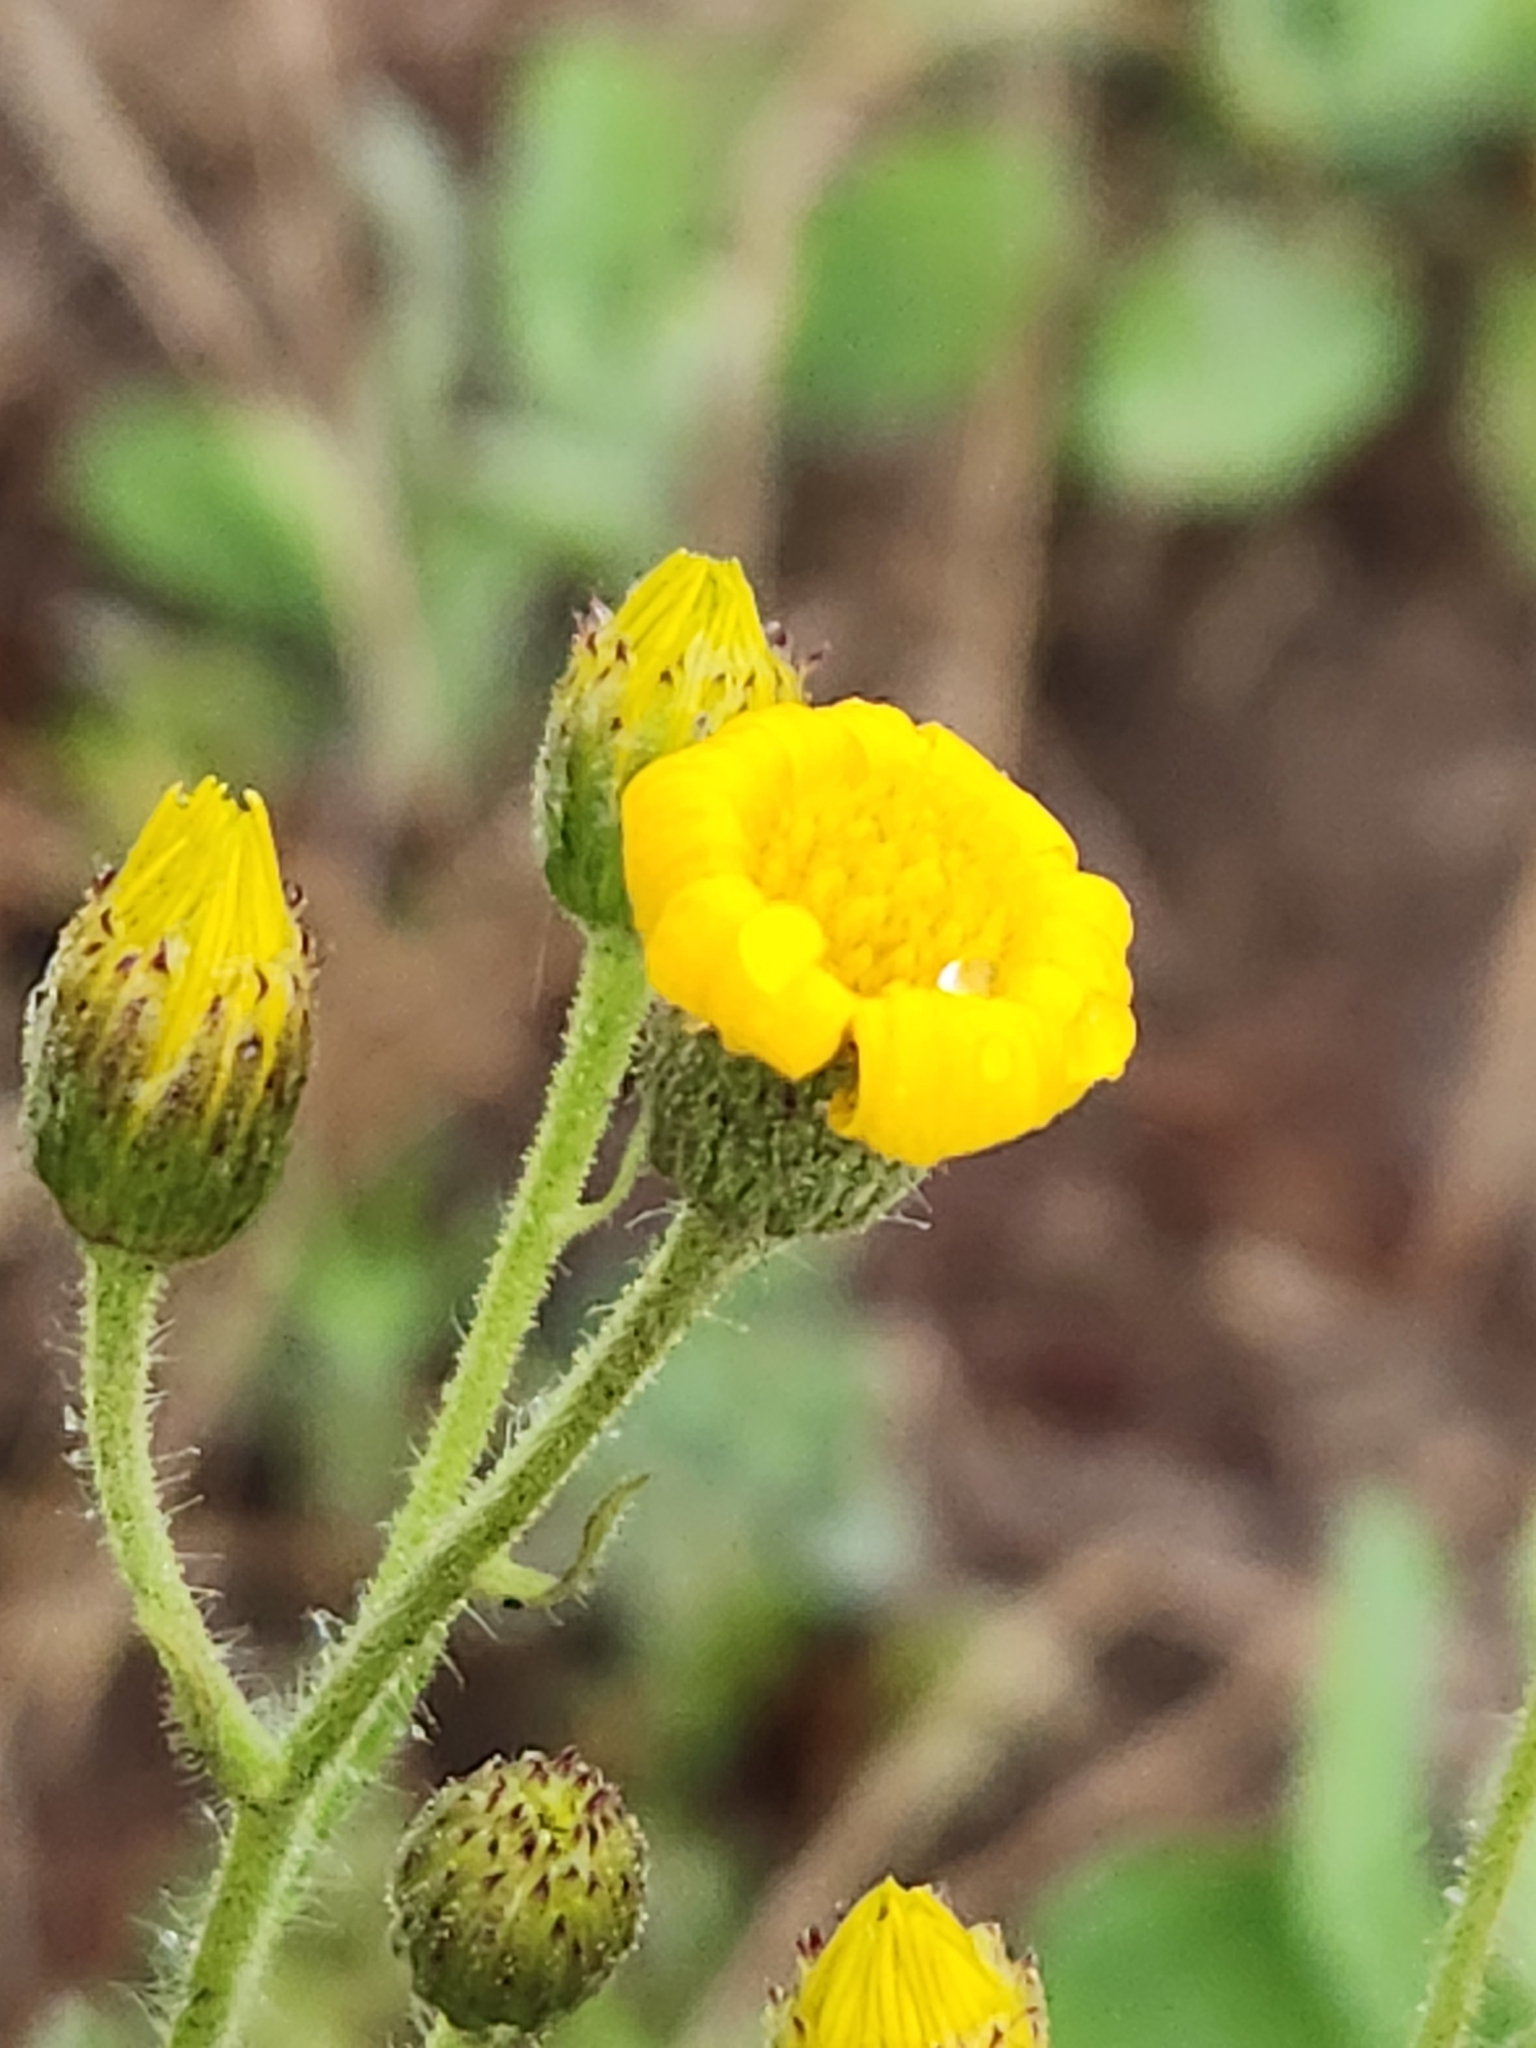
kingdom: Plantae
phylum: Tracheophyta
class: Magnoliopsida
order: Asterales
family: Asteraceae
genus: Heterotheca
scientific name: Heterotheca grandiflora
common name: Telegraphweed
